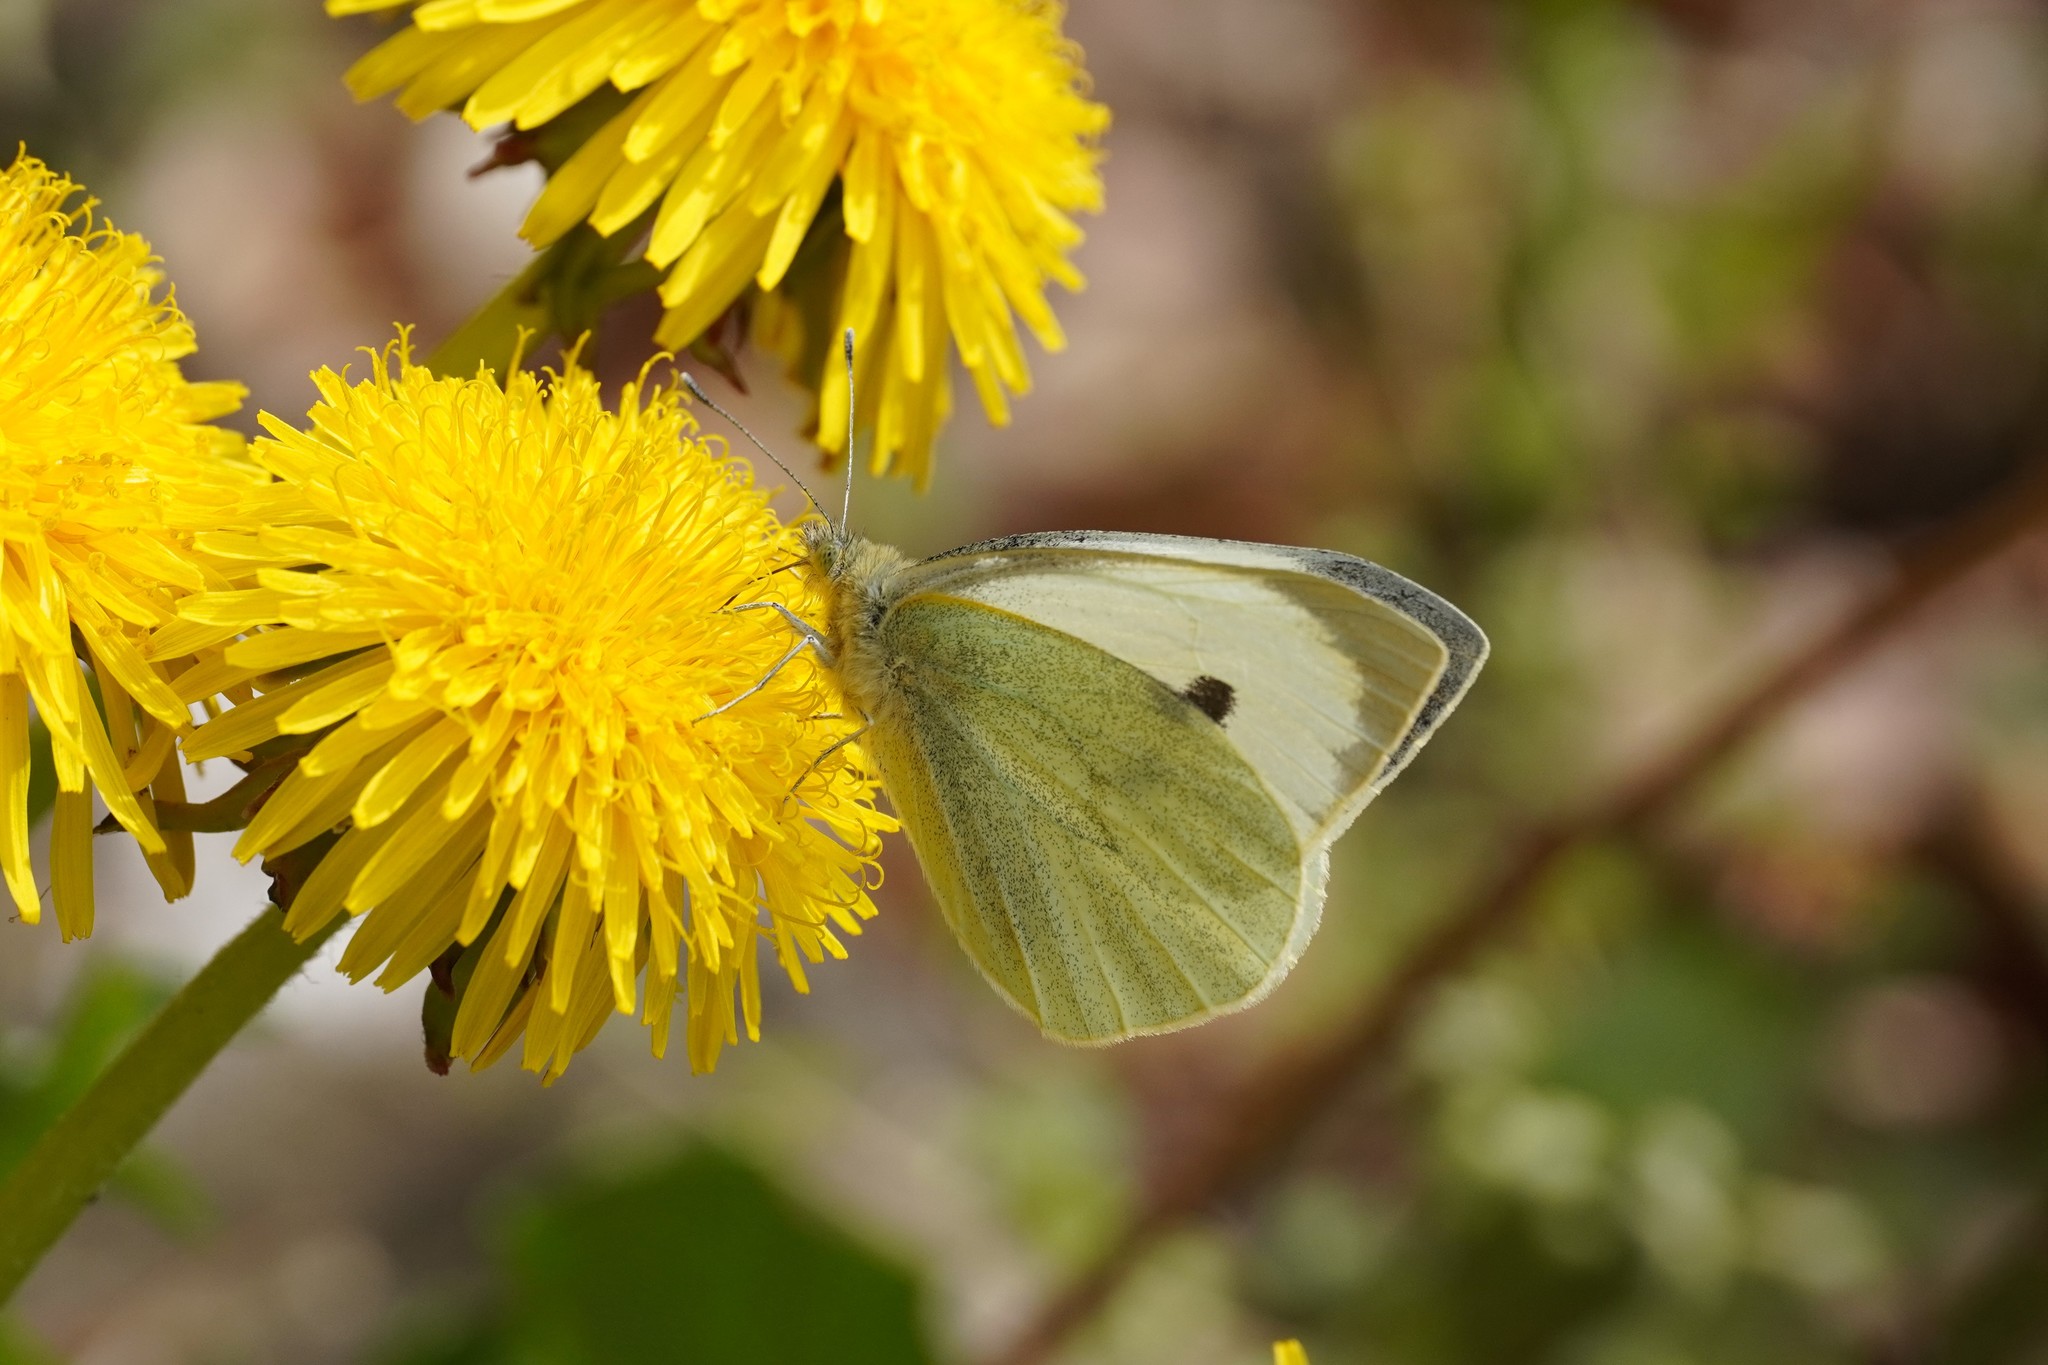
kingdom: Animalia
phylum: Arthropoda
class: Insecta
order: Lepidoptera
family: Pieridae
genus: Pieris
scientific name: Pieris brassicae
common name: Large white
